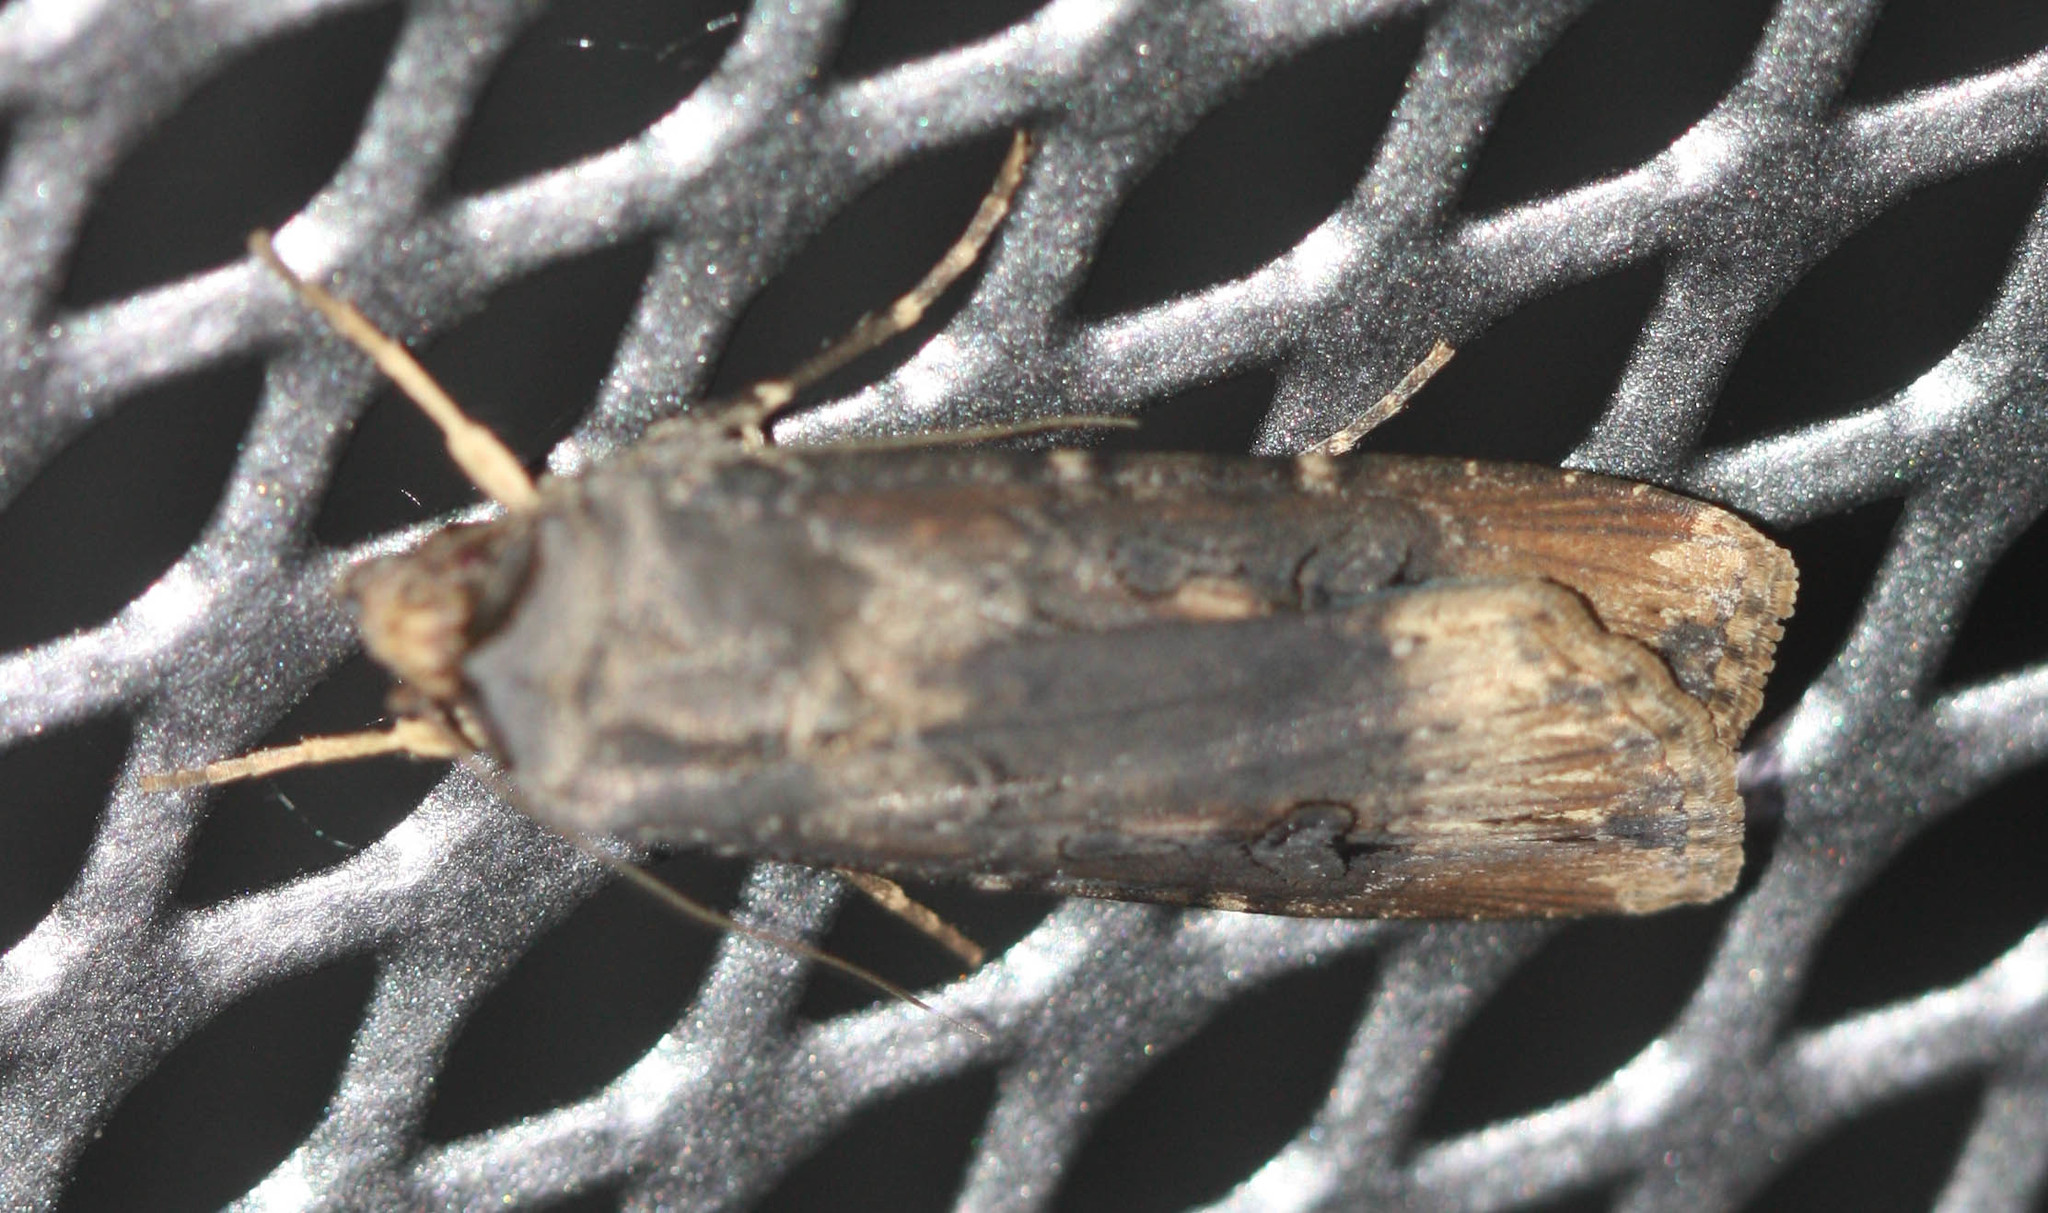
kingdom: Animalia
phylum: Arthropoda
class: Insecta
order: Lepidoptera
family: Noctuidae
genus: Agrotis
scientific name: Agrotis ipsilon
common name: Dark sword-grass
